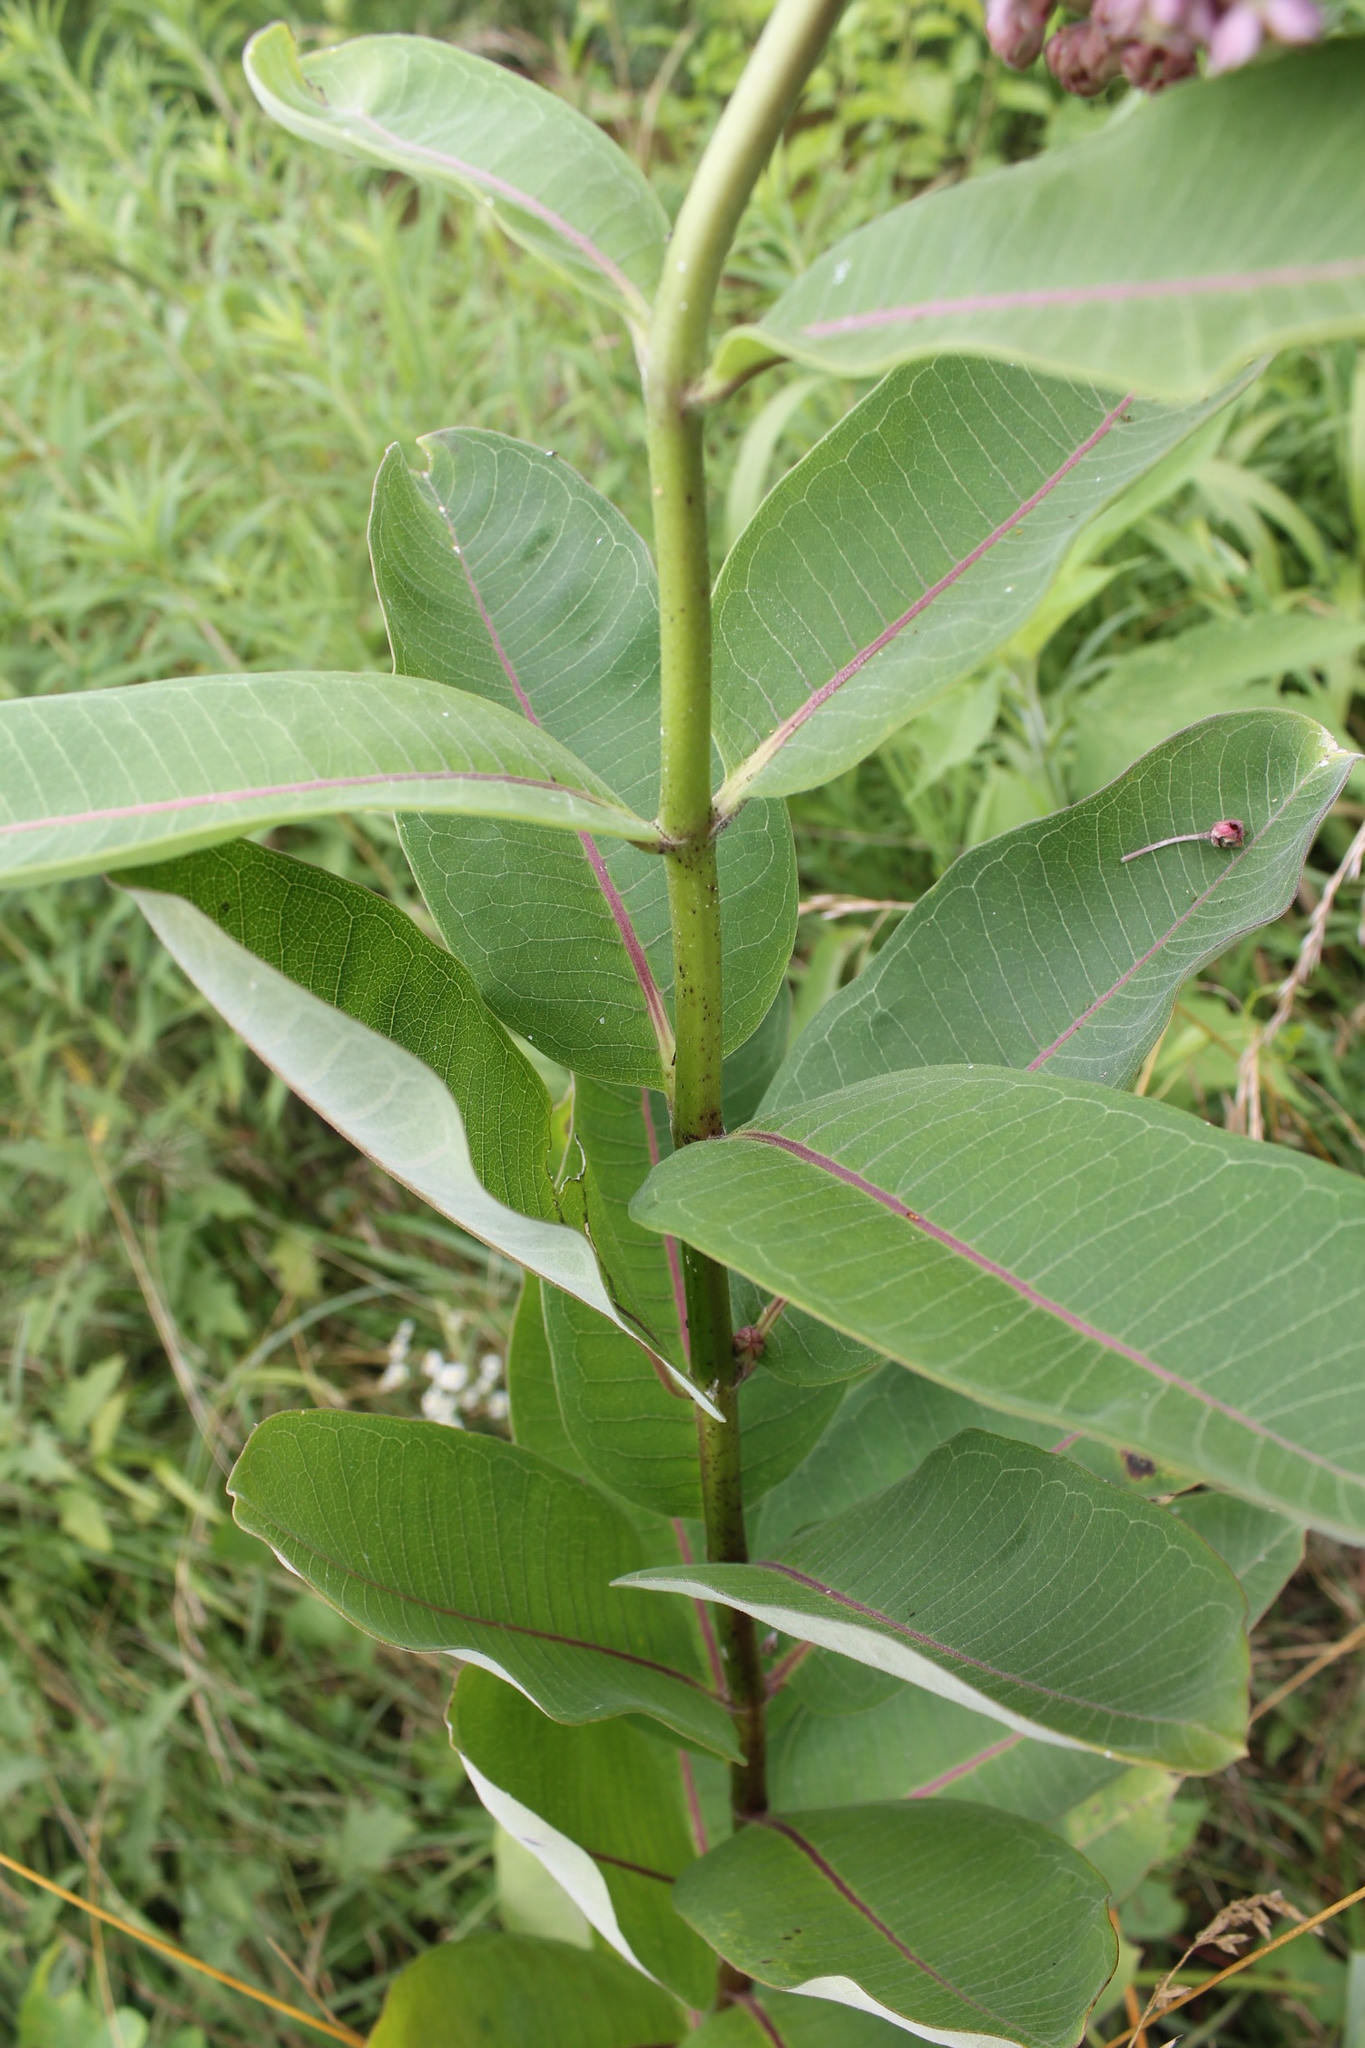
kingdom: Plantae
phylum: Tracheophyta
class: Magnoliopsida
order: Gentianales
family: Apocynaceae
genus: Asclepias
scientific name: Asclepias syriaca
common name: Common milkweed
